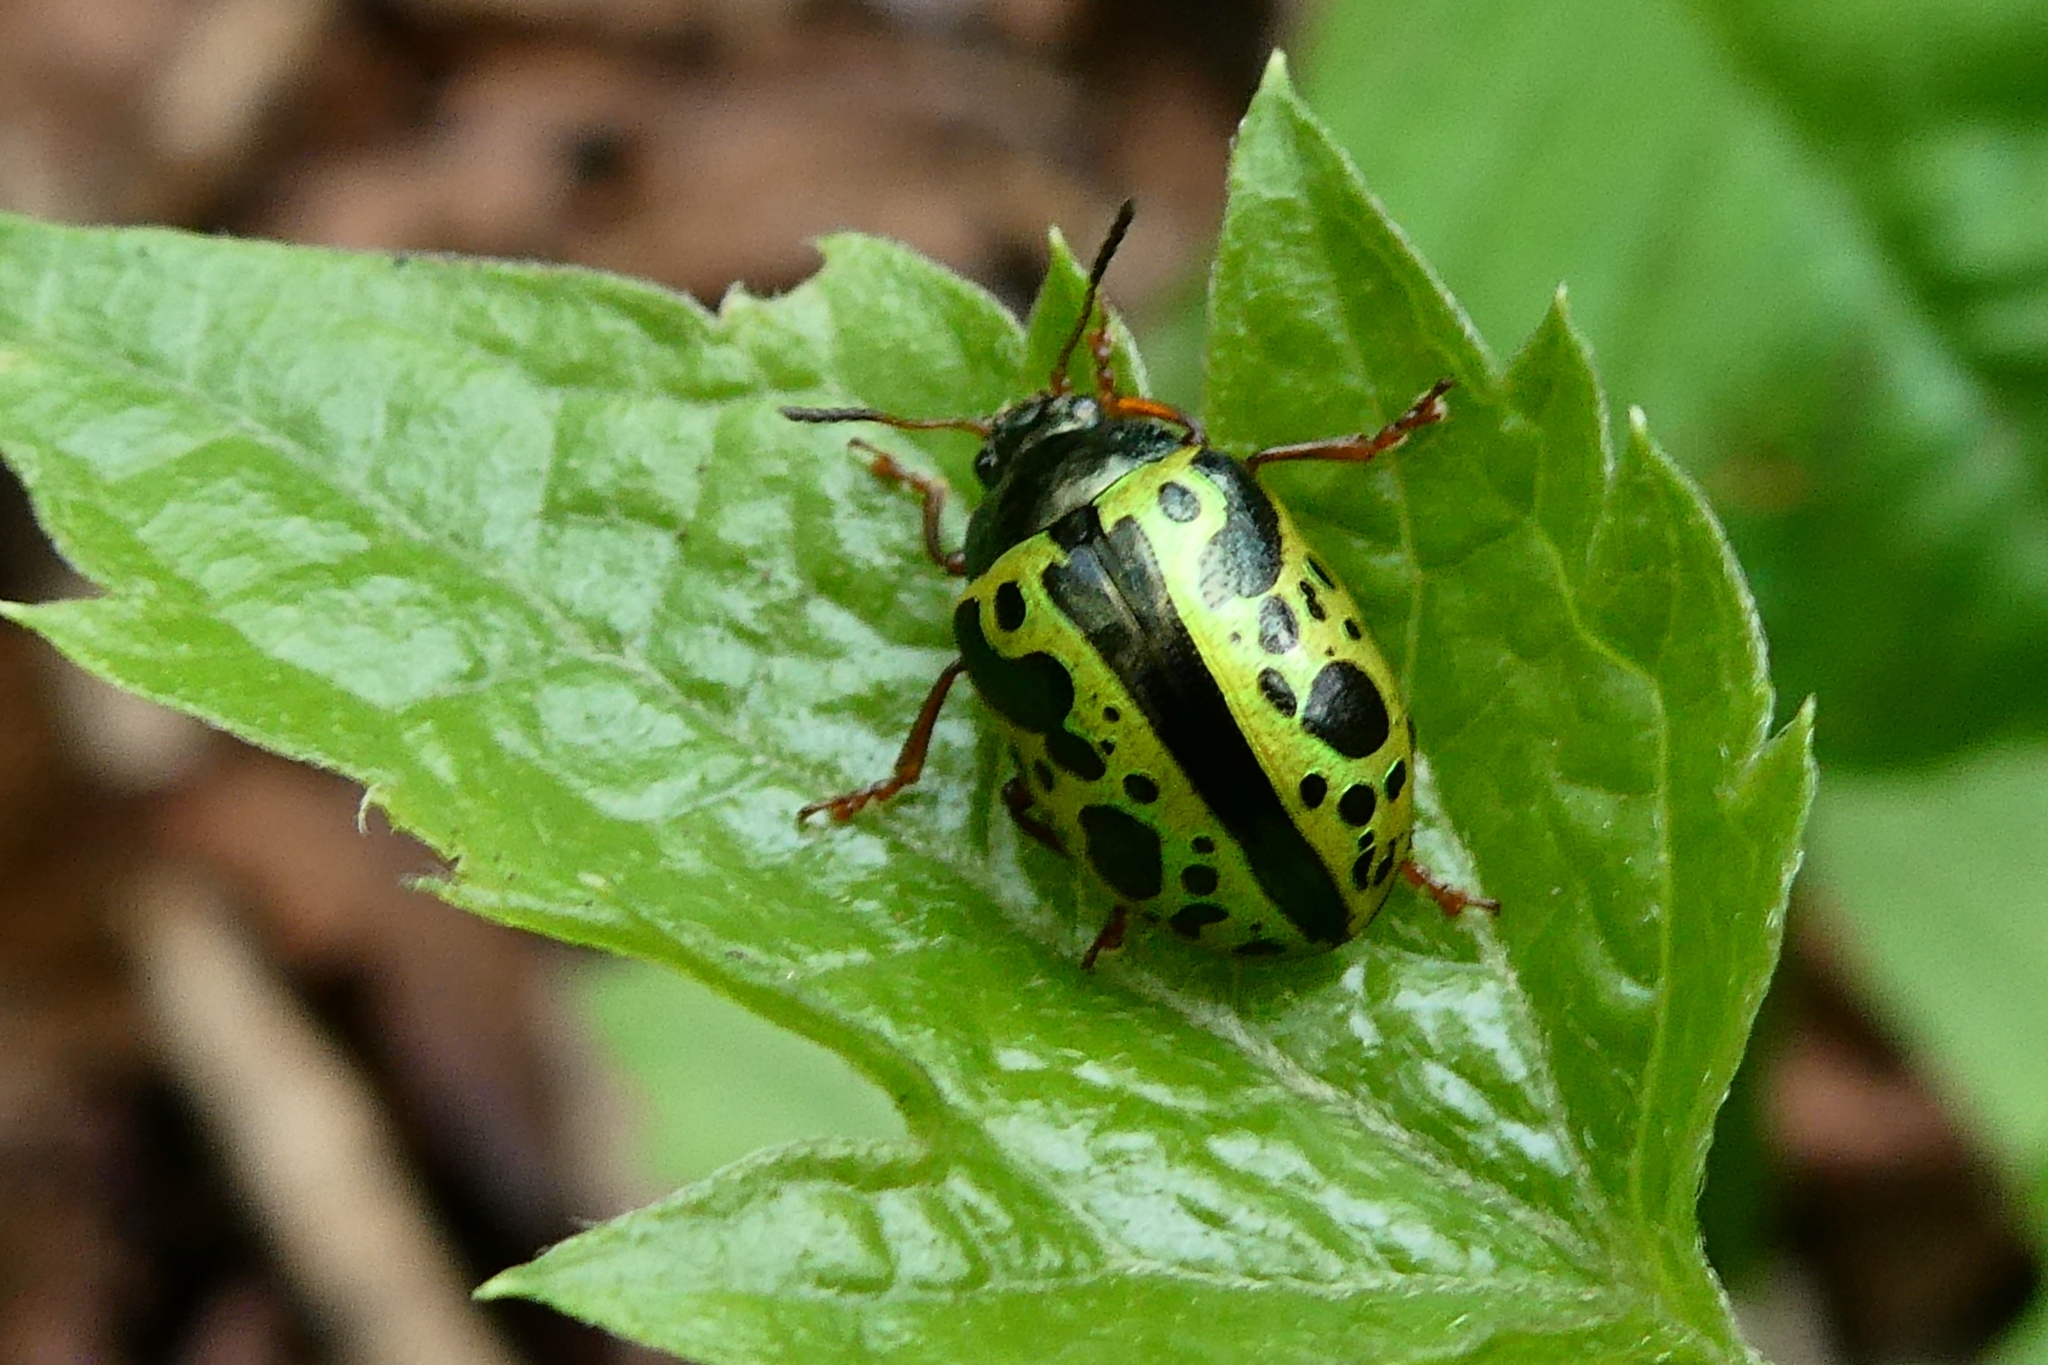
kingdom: Animalia
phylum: Arthropoda
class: Insecta
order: Coleoptera
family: Chrysomelidae
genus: Calligrapha
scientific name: Calligrapha pantherina
